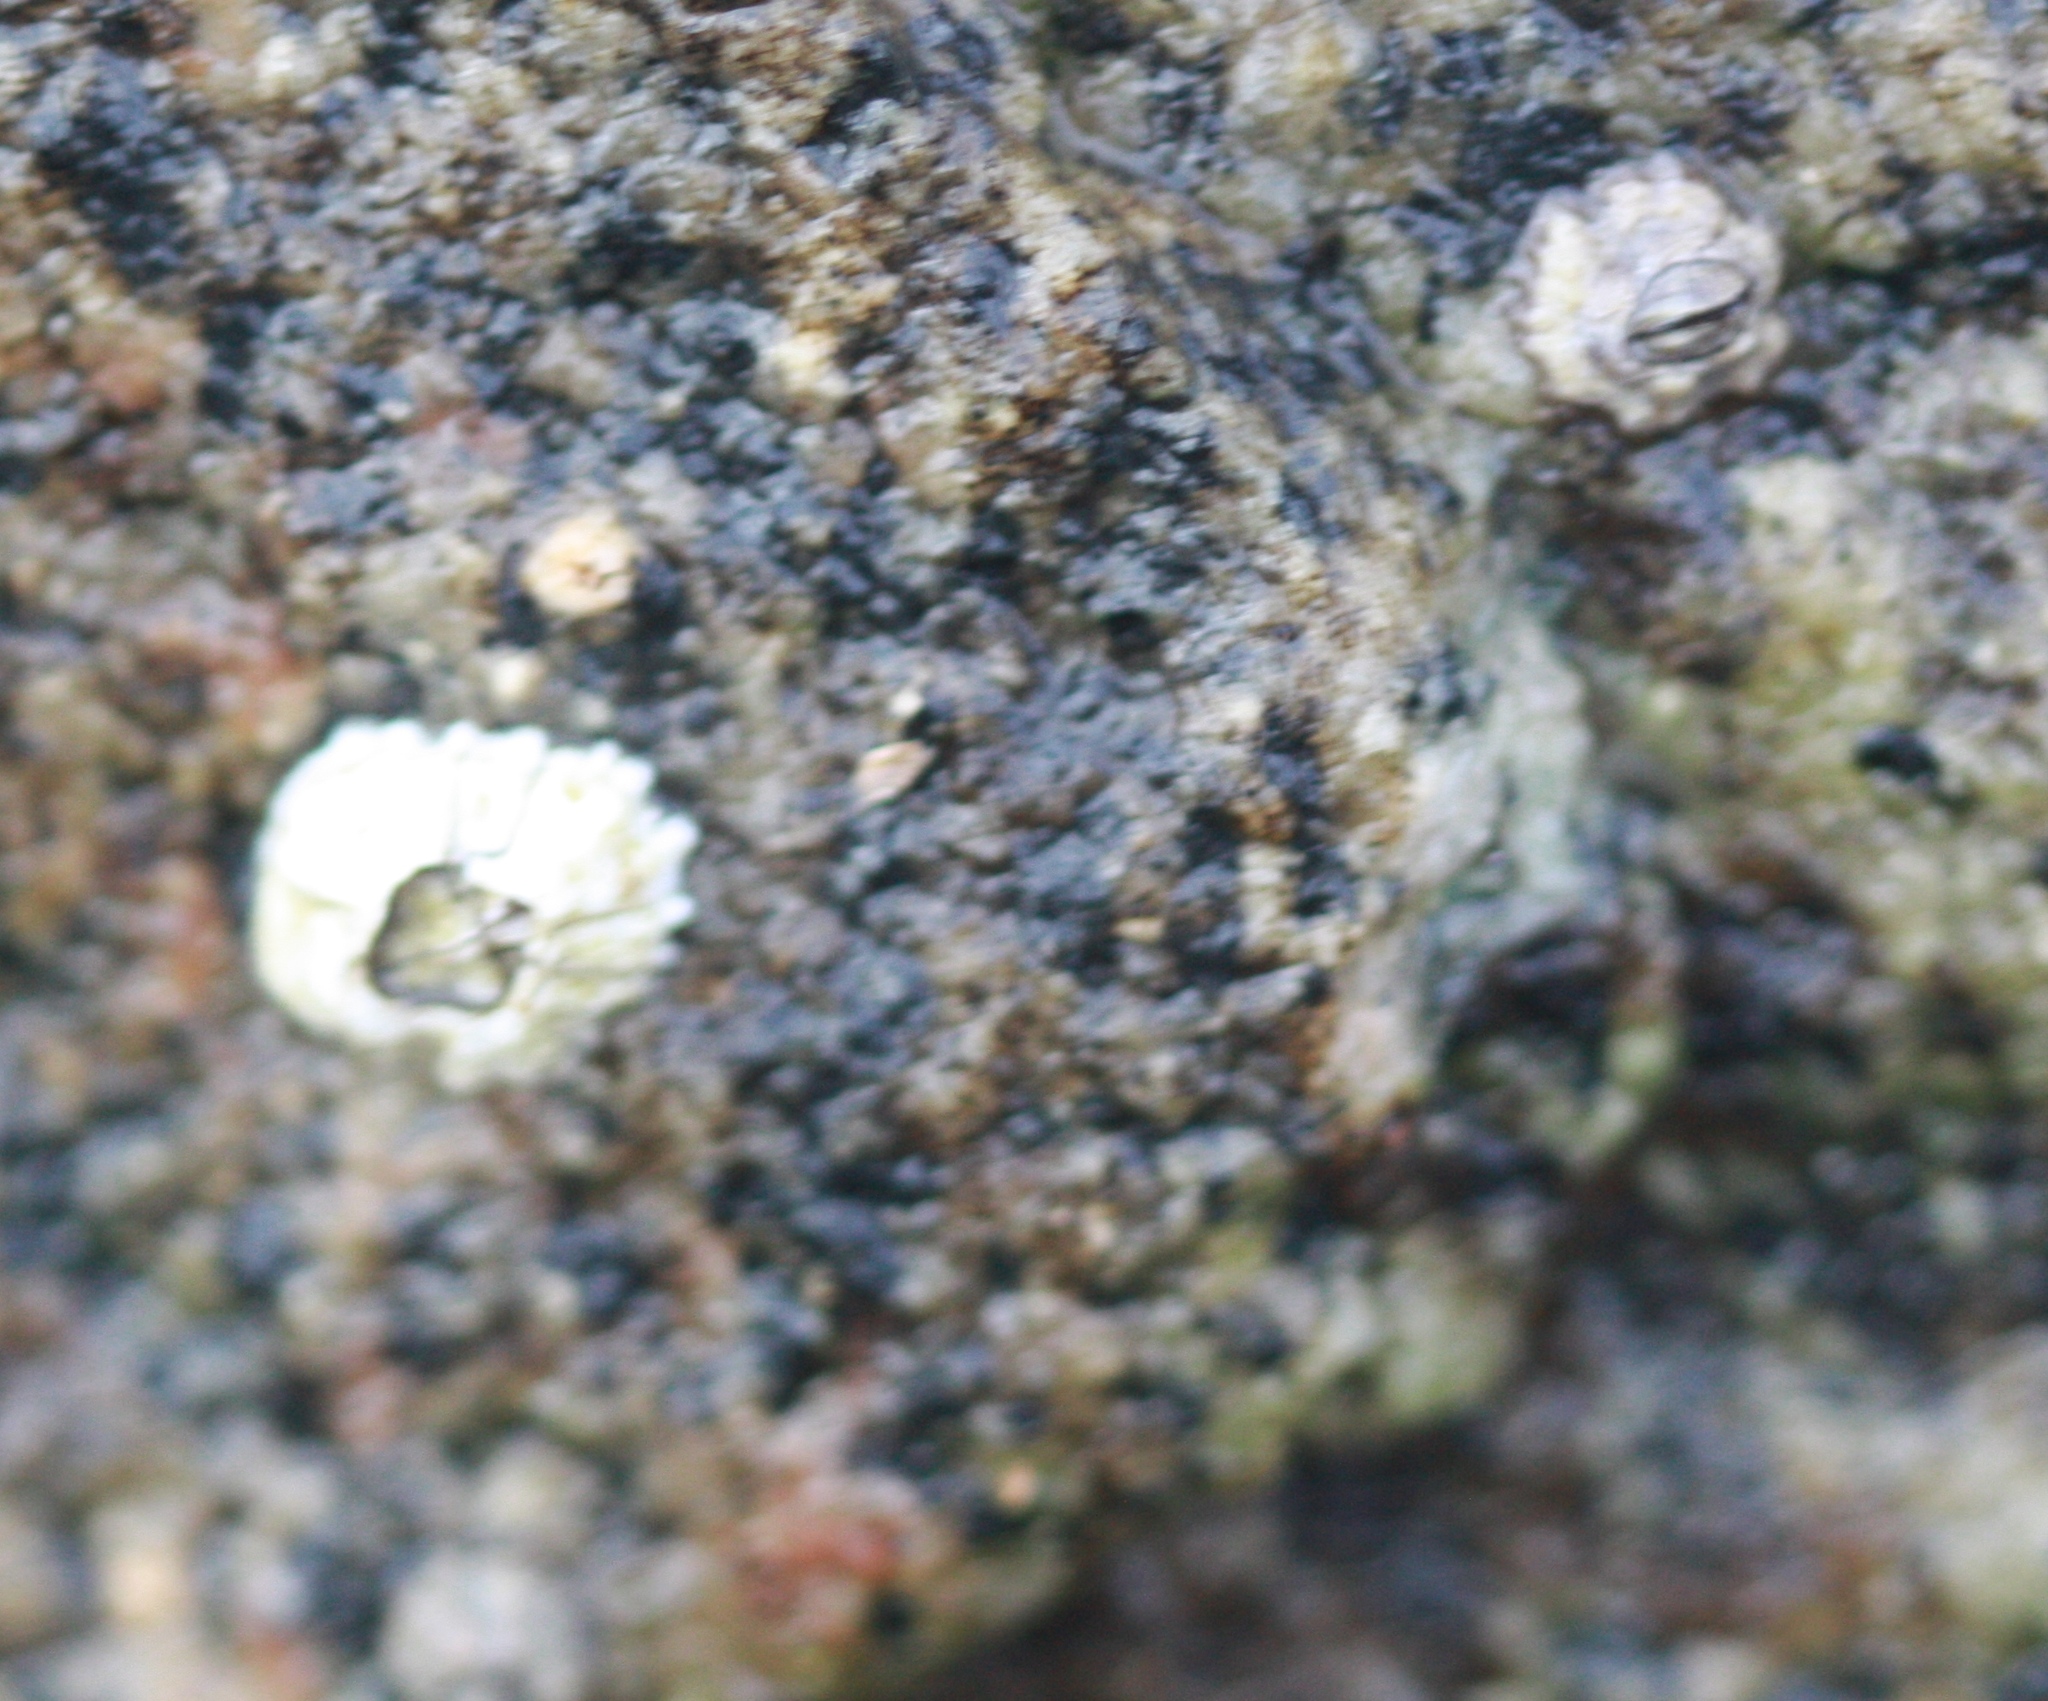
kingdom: Animalia
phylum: Arthropoda
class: Maxillopoda
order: Sessilia
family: Balanidae
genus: Balanus
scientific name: Balanus glandula
